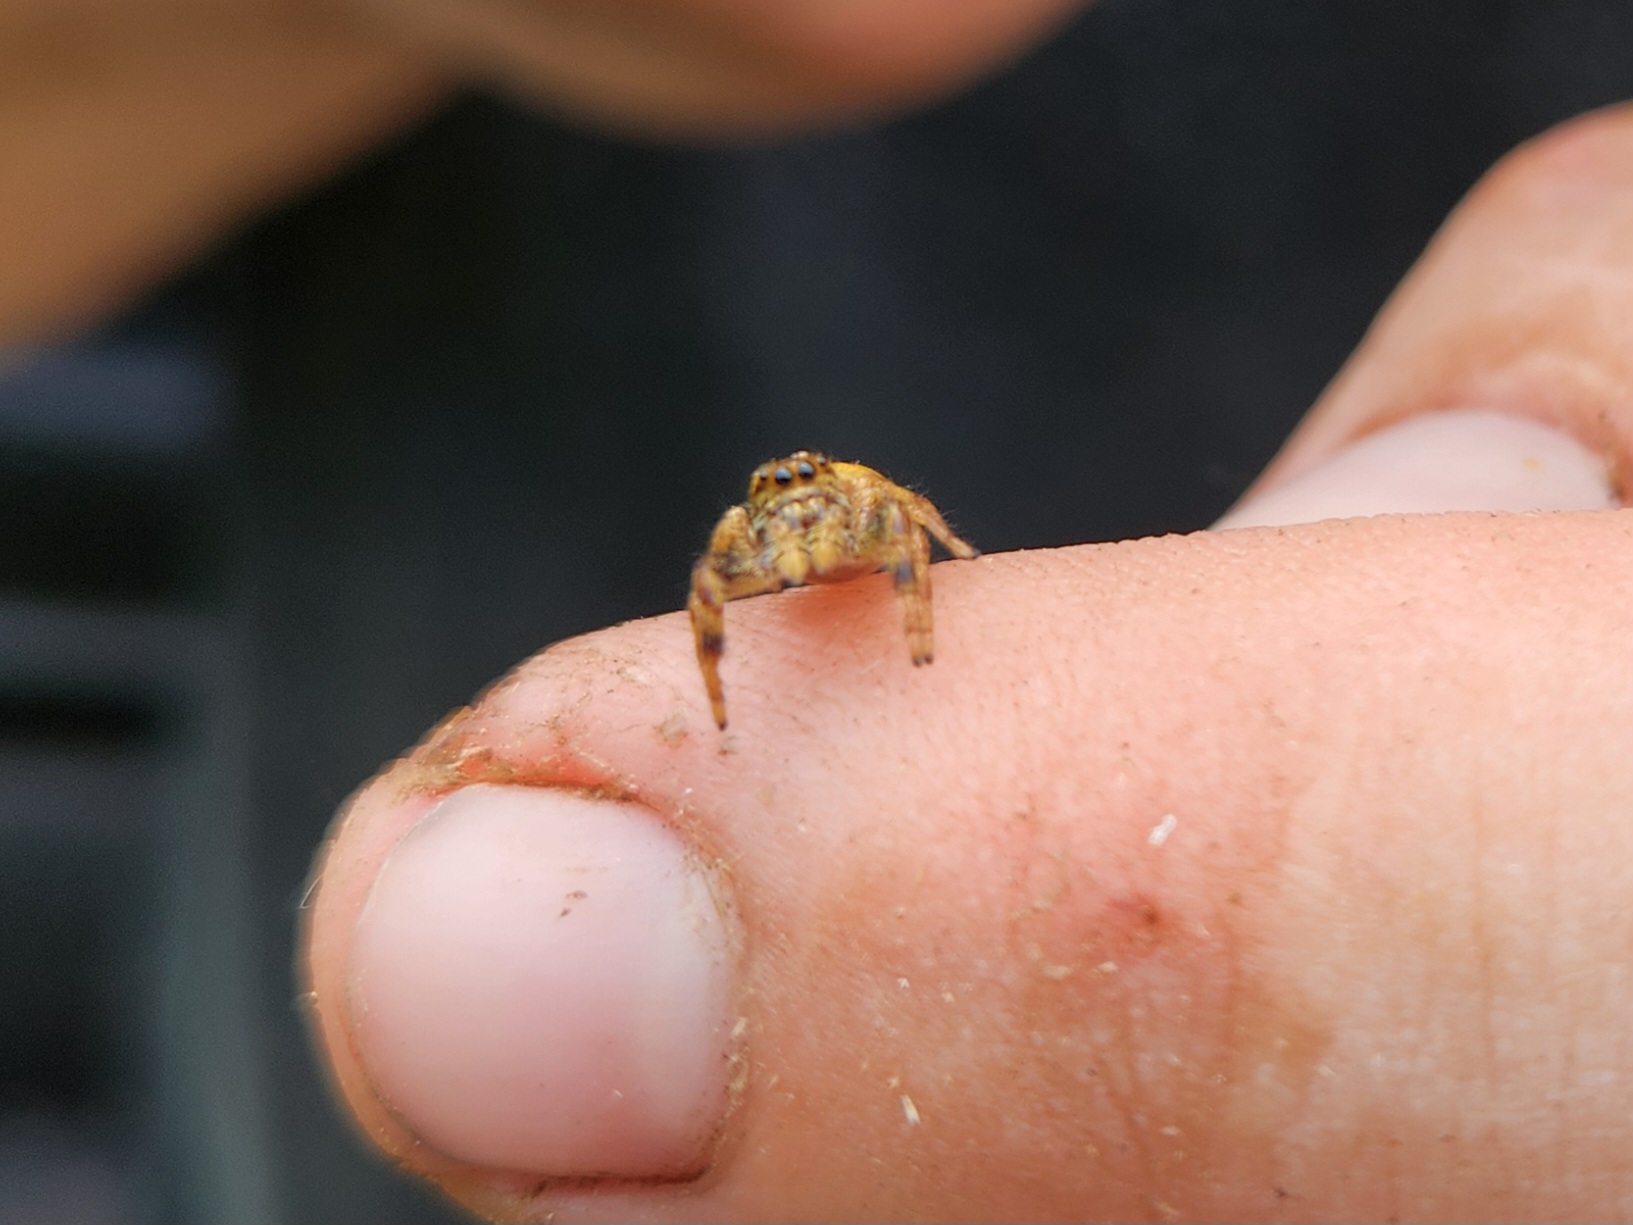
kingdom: Animalia
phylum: Arthropoda
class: Arachnida
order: Araneae
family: Salticidae
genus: Paraphidippus
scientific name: Paraphidippus aurantius
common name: Jumping spiders
